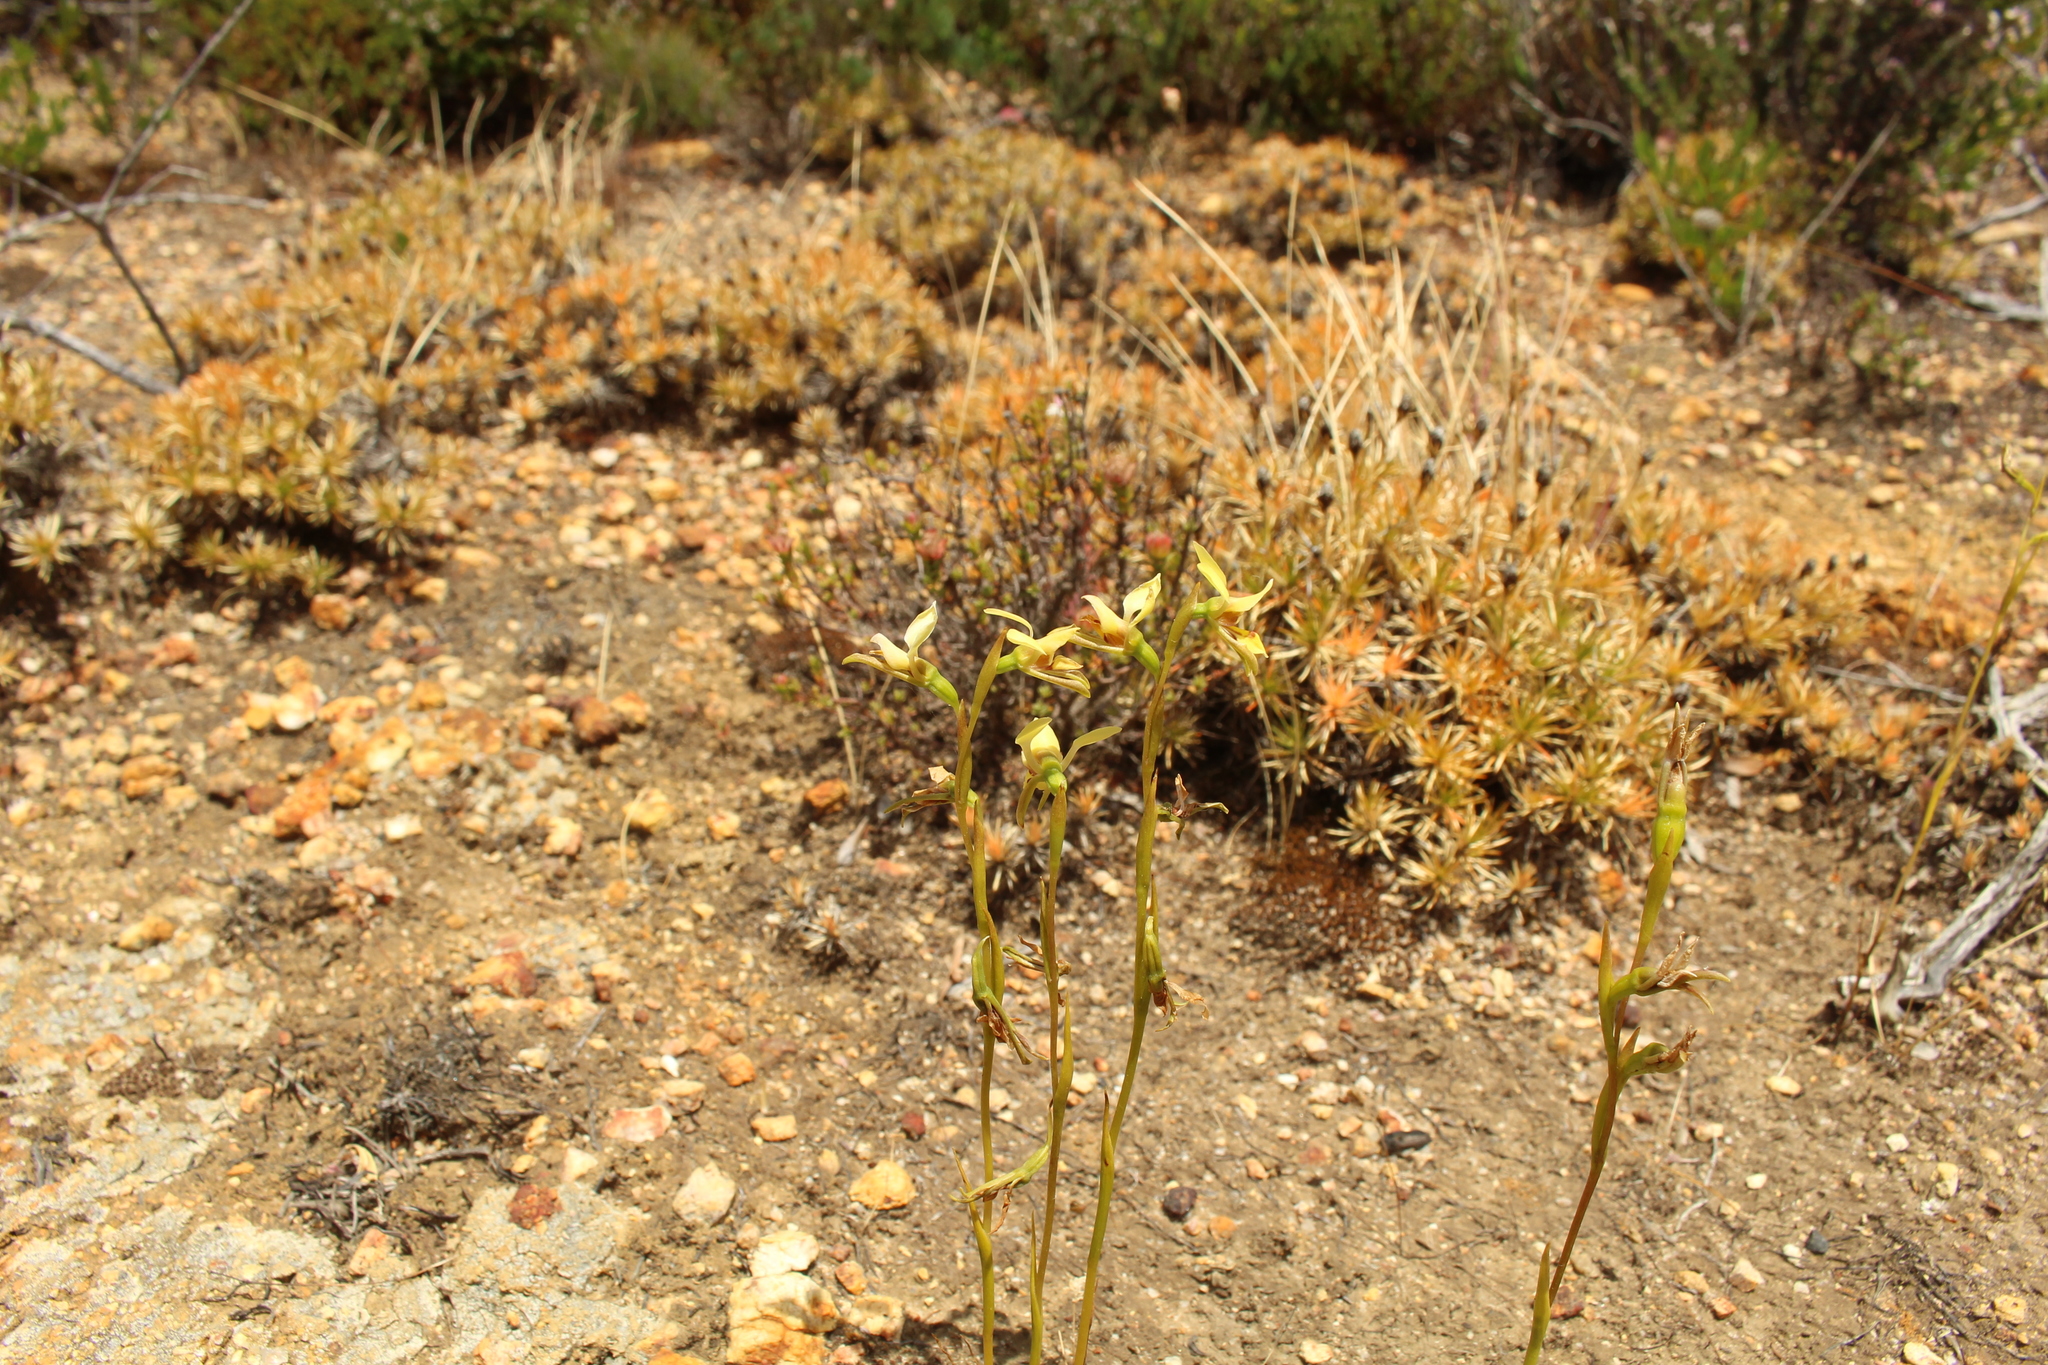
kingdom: Plantae
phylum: Tracheophyta
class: Liliopsida
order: Asparagales
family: Orchidaceae
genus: Diuris
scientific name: Diuris setacea
